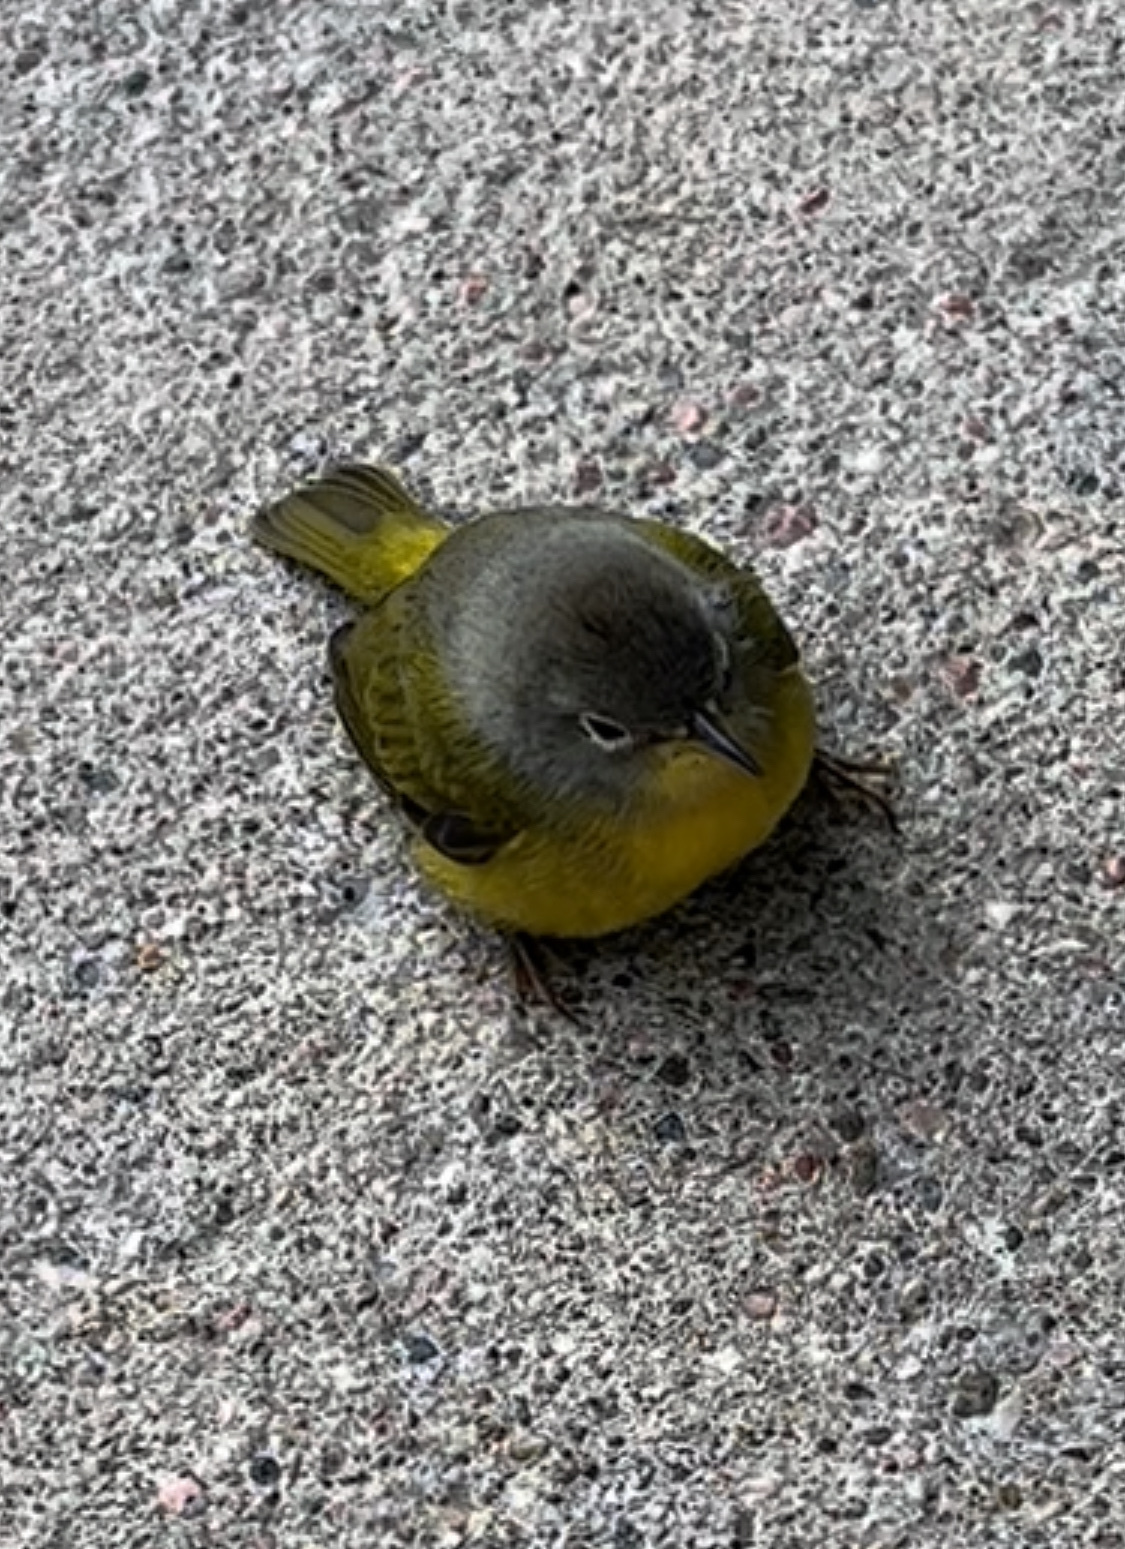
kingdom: Animalia
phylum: Chordata
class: Aves
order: Passeriformes
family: Parulidae
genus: Leiothlypis
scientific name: Leiothlypis ruficapilla
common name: Nashville warbler
